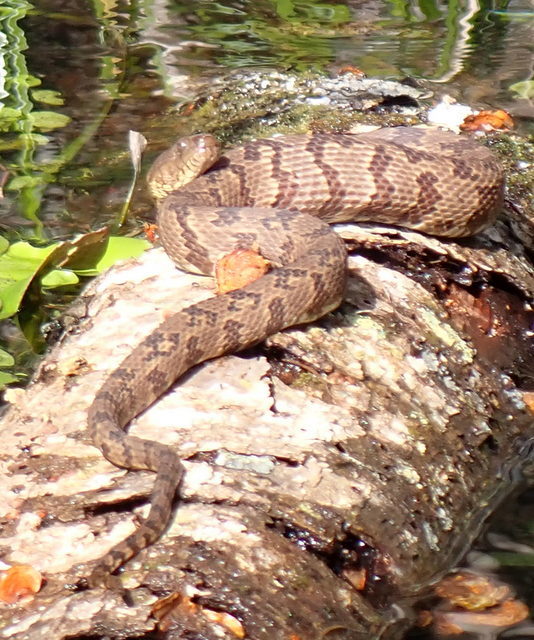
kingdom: Animalia
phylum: Chordata
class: Squamata
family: Colubridae
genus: Nerodia
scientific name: Nerodia taxispilota
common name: Brown water snake
